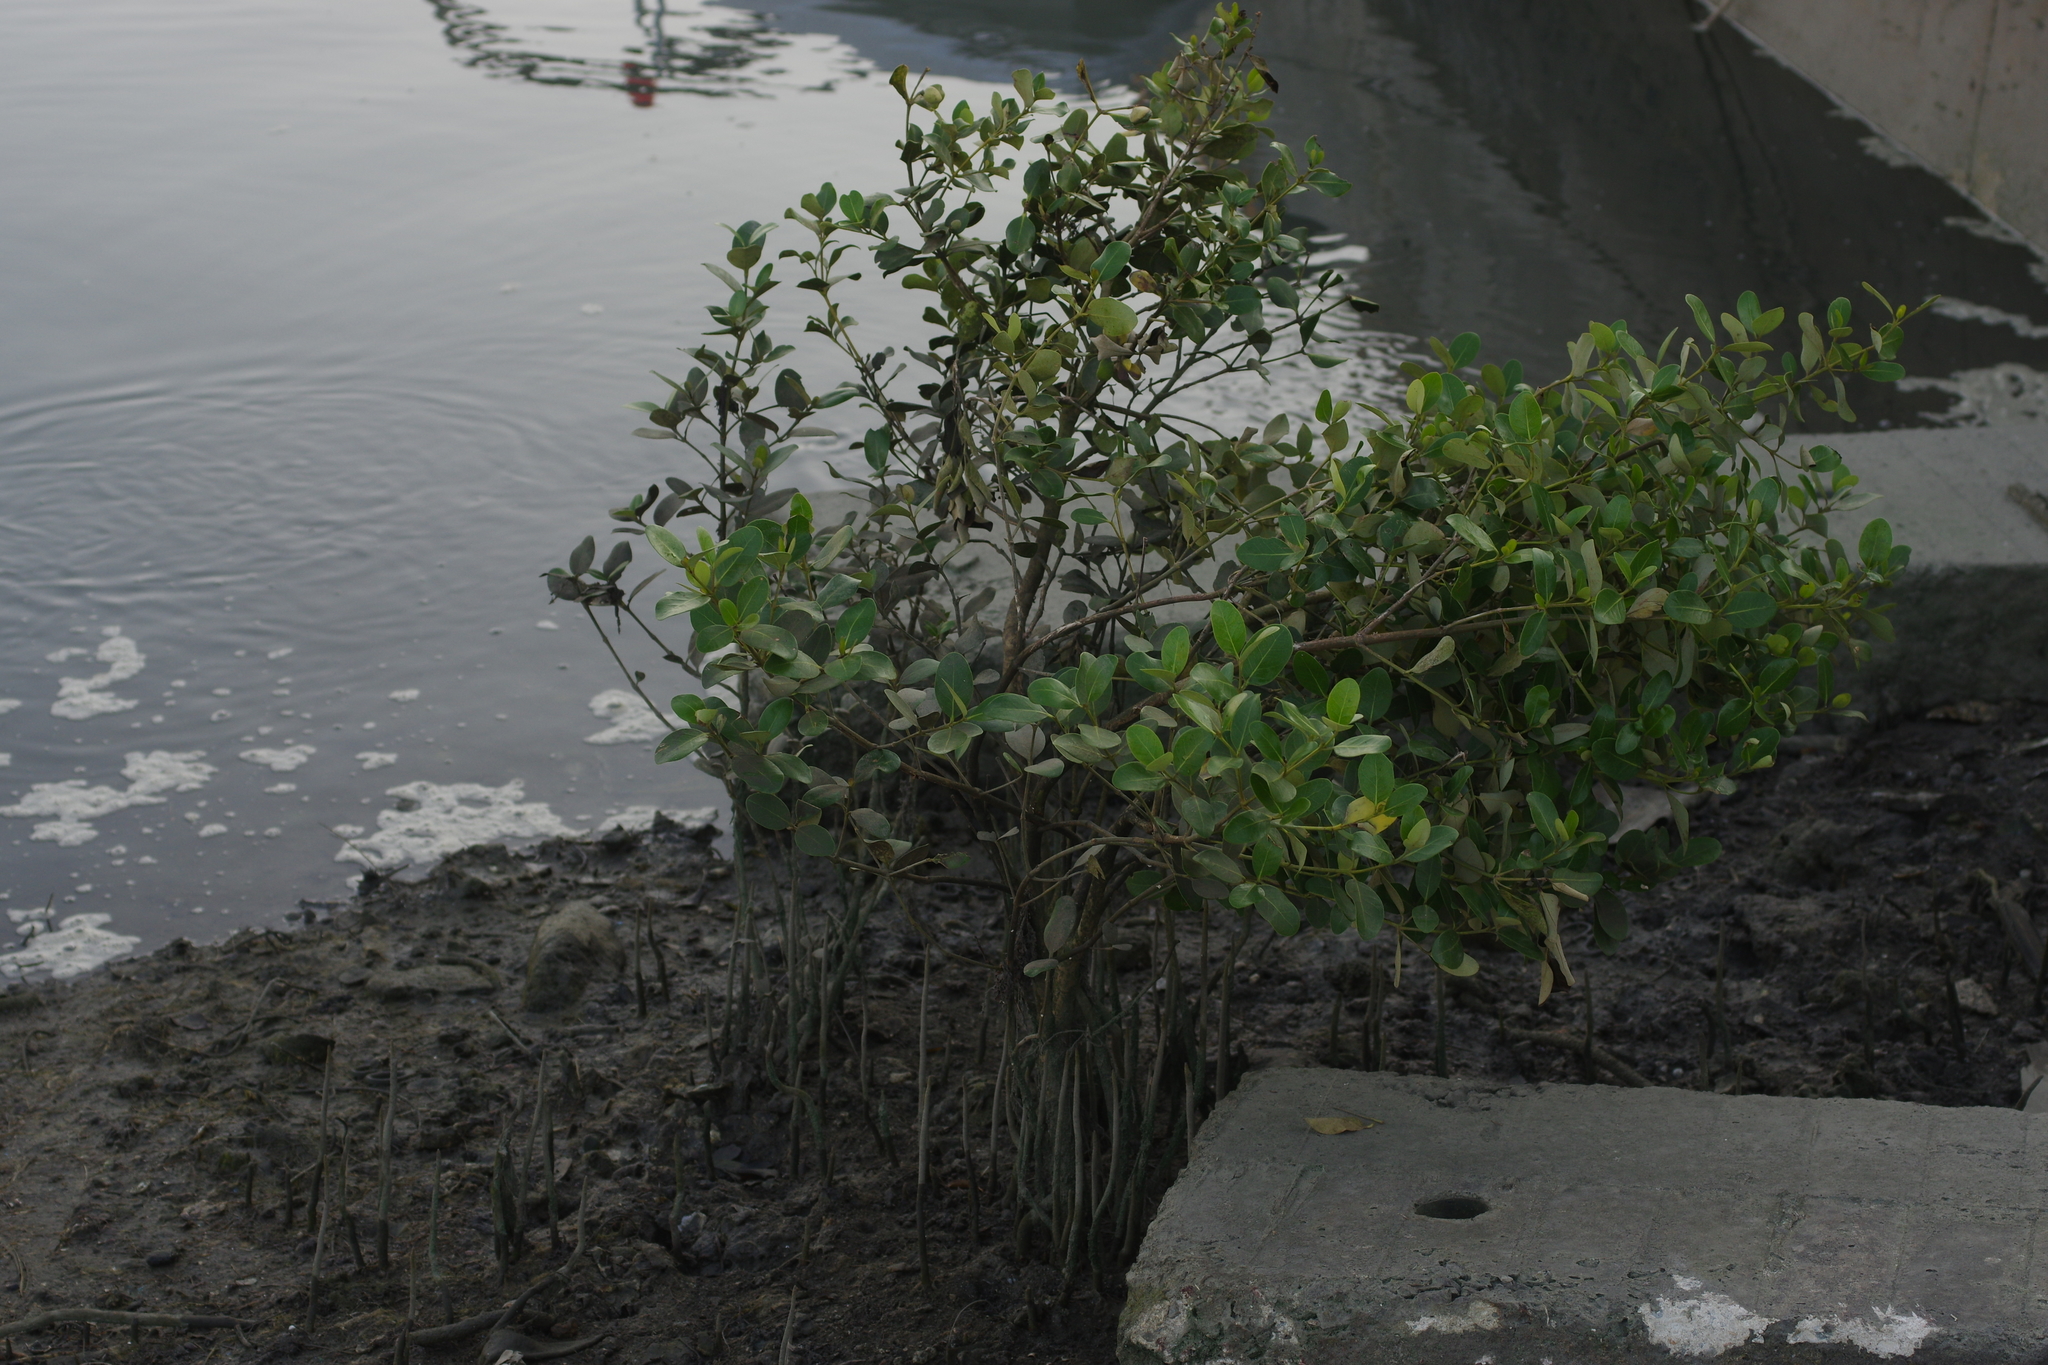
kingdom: Plantae
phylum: Tracheophyta
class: Magnoliopsida
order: Lamiales
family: Acanthaceae
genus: Avicennia
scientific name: Avicennia marina
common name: Gray mangrove
